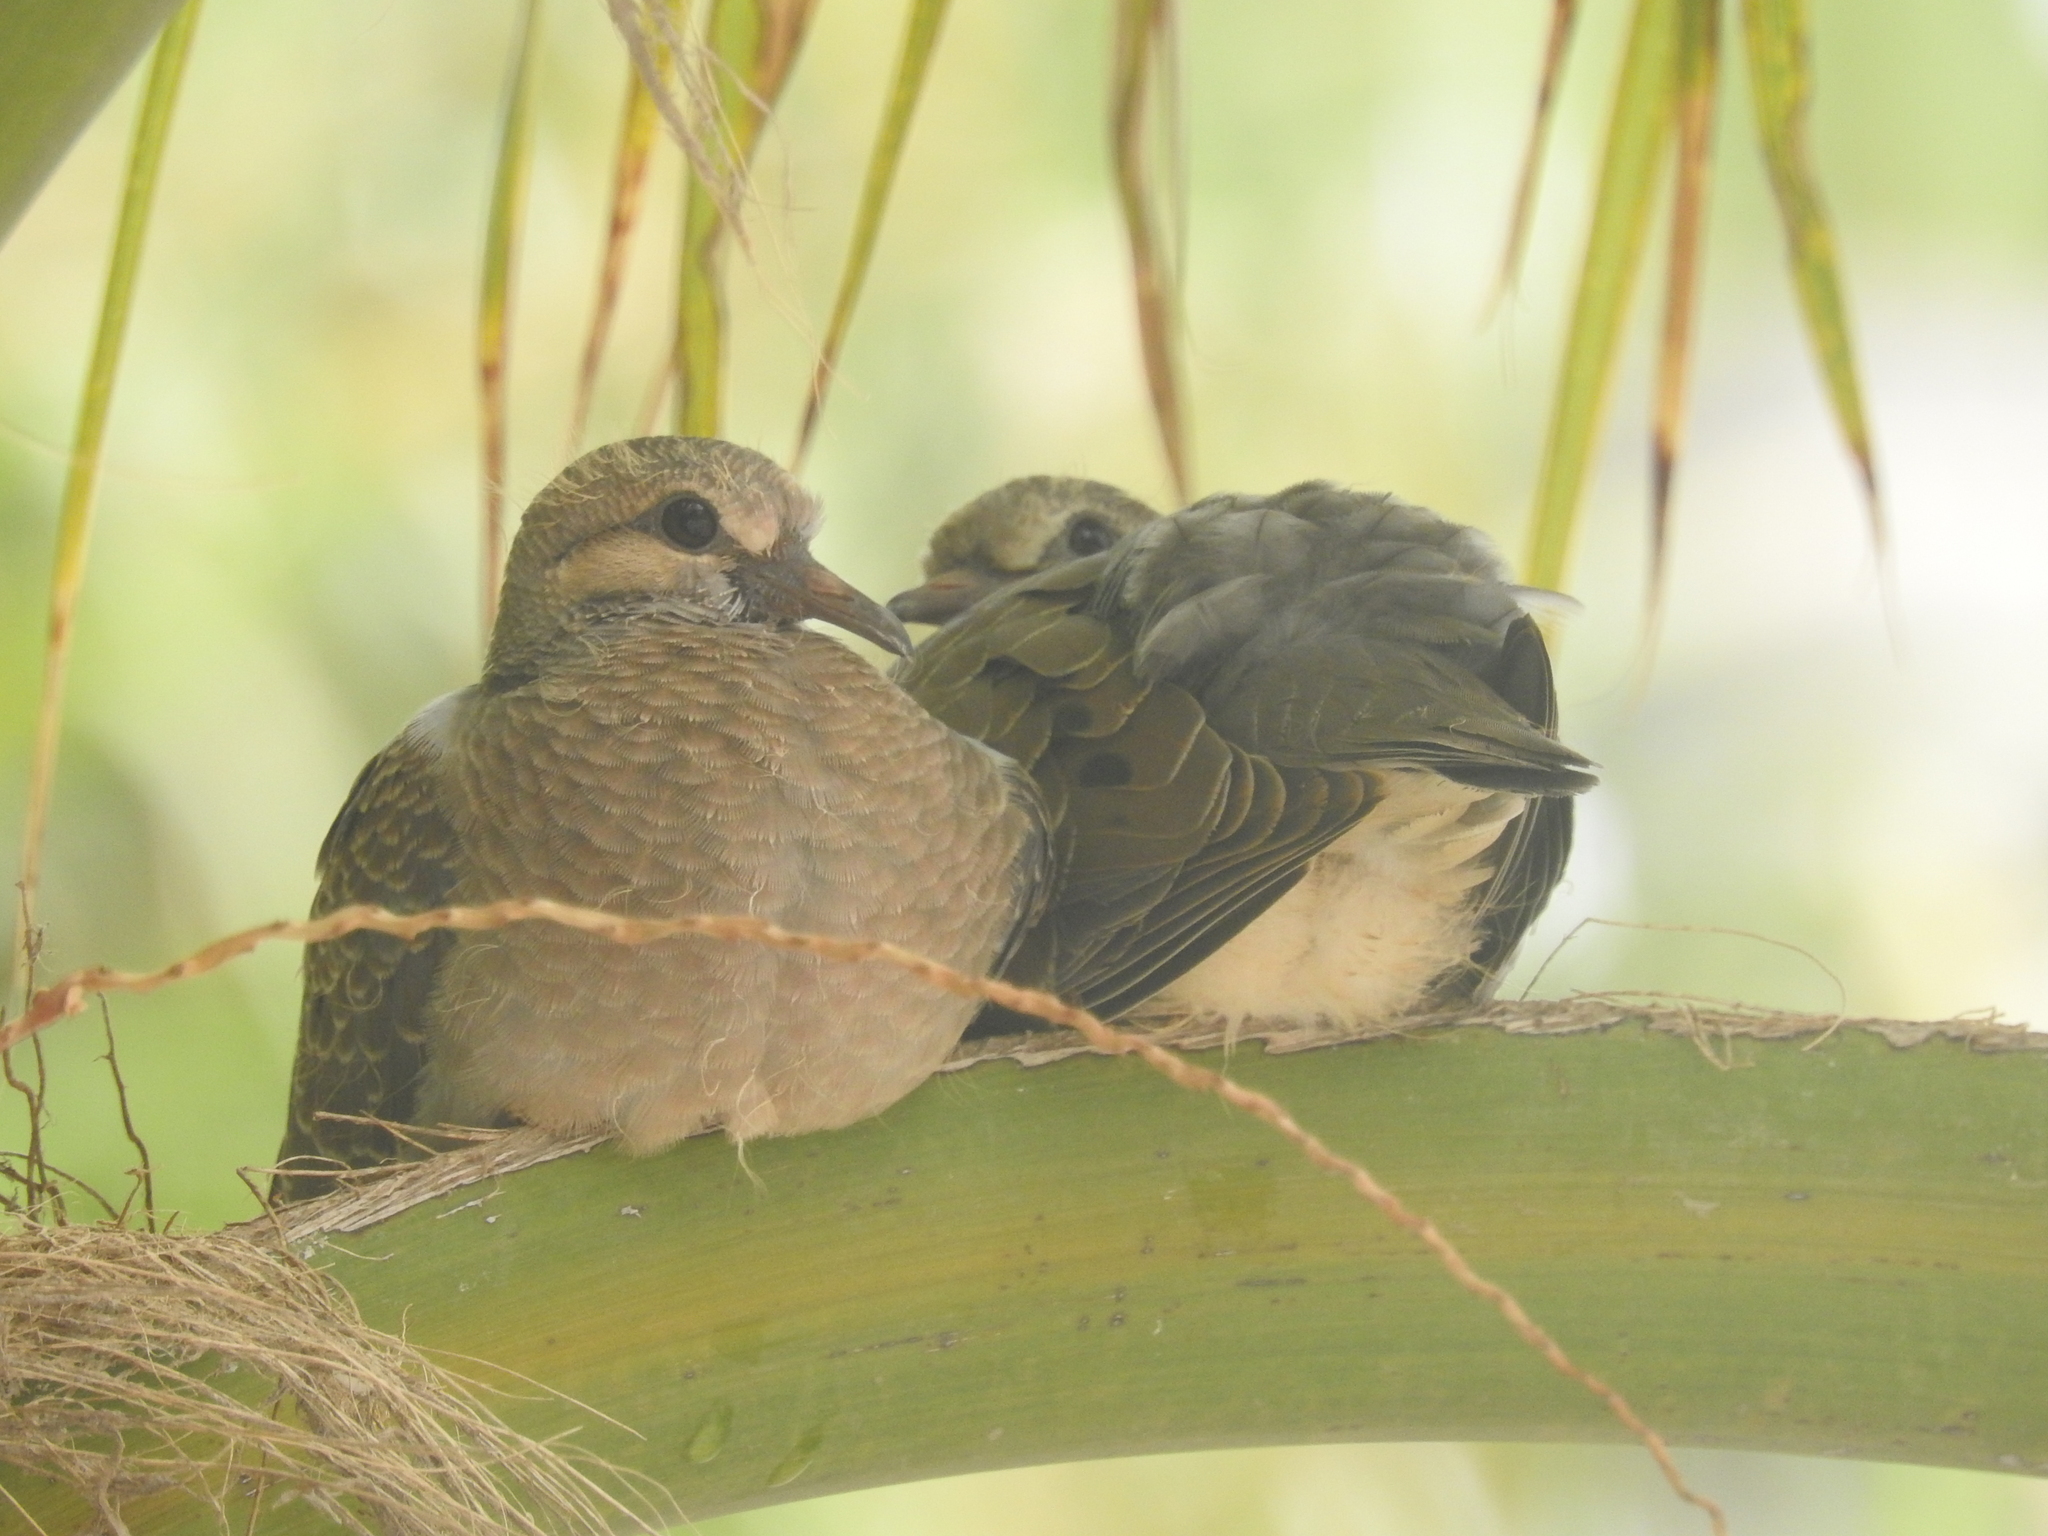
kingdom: Animalia
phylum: Chordata
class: Aves
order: Columbiformes
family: Columbidae
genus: Zenaida
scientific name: Zenaida auriculata
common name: Eared dove
